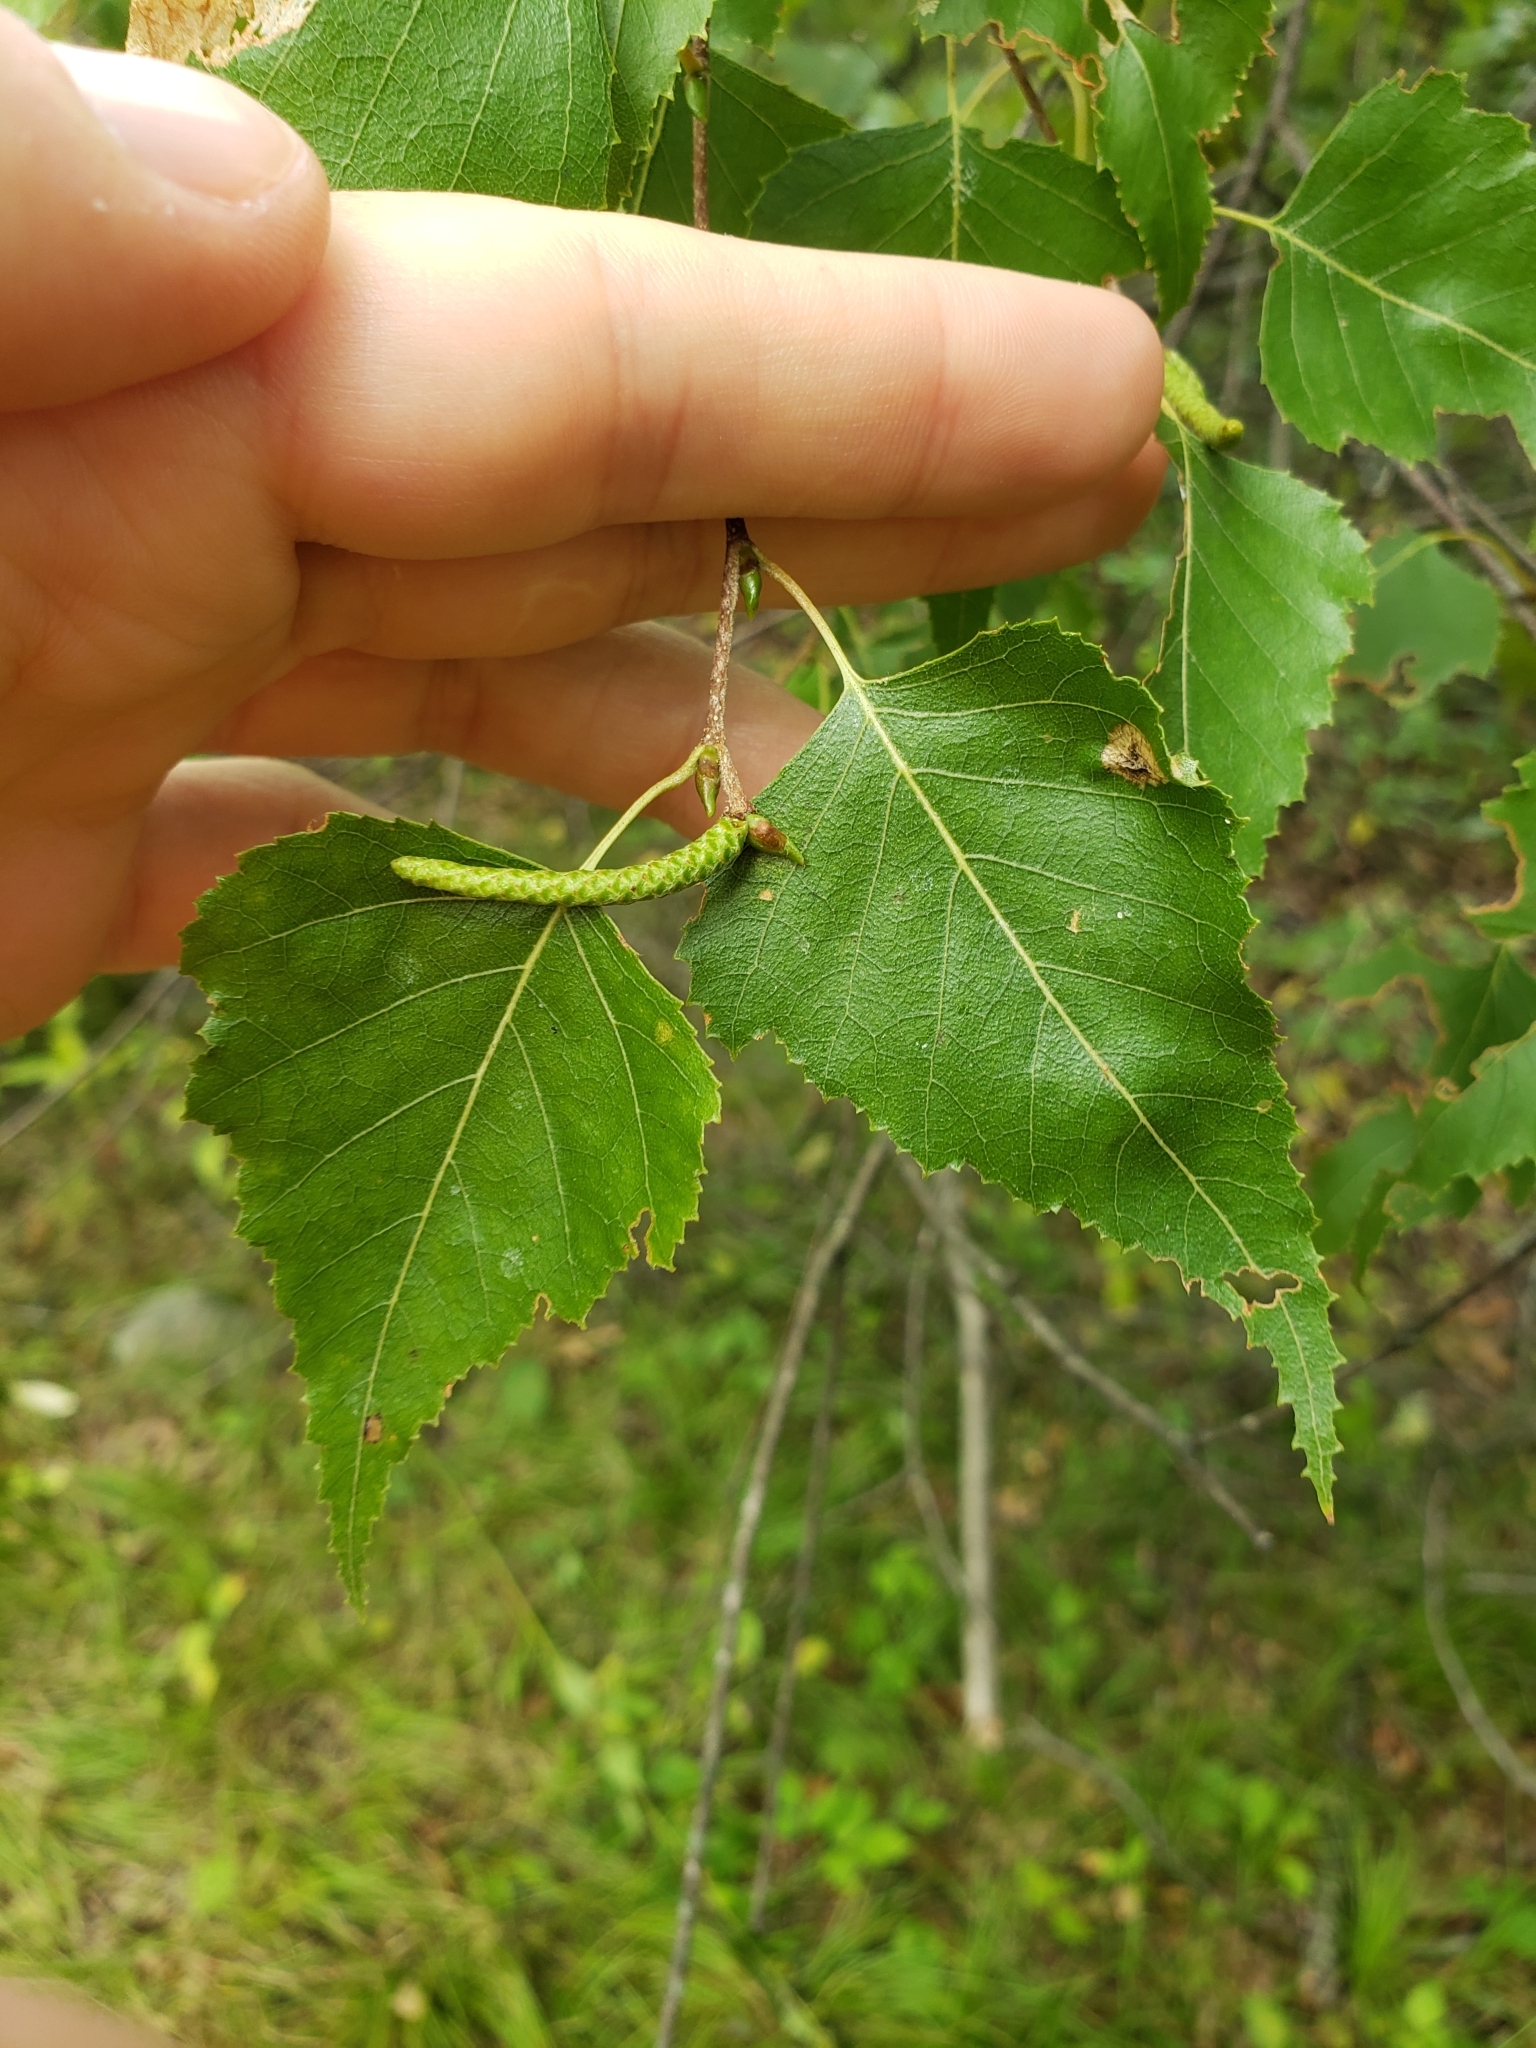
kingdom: Plantae
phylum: Tracheophyta
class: Magnoliopsida
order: Fagales
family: Betulaceae
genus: Betula
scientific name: Betula populifolia
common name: Fire birch
